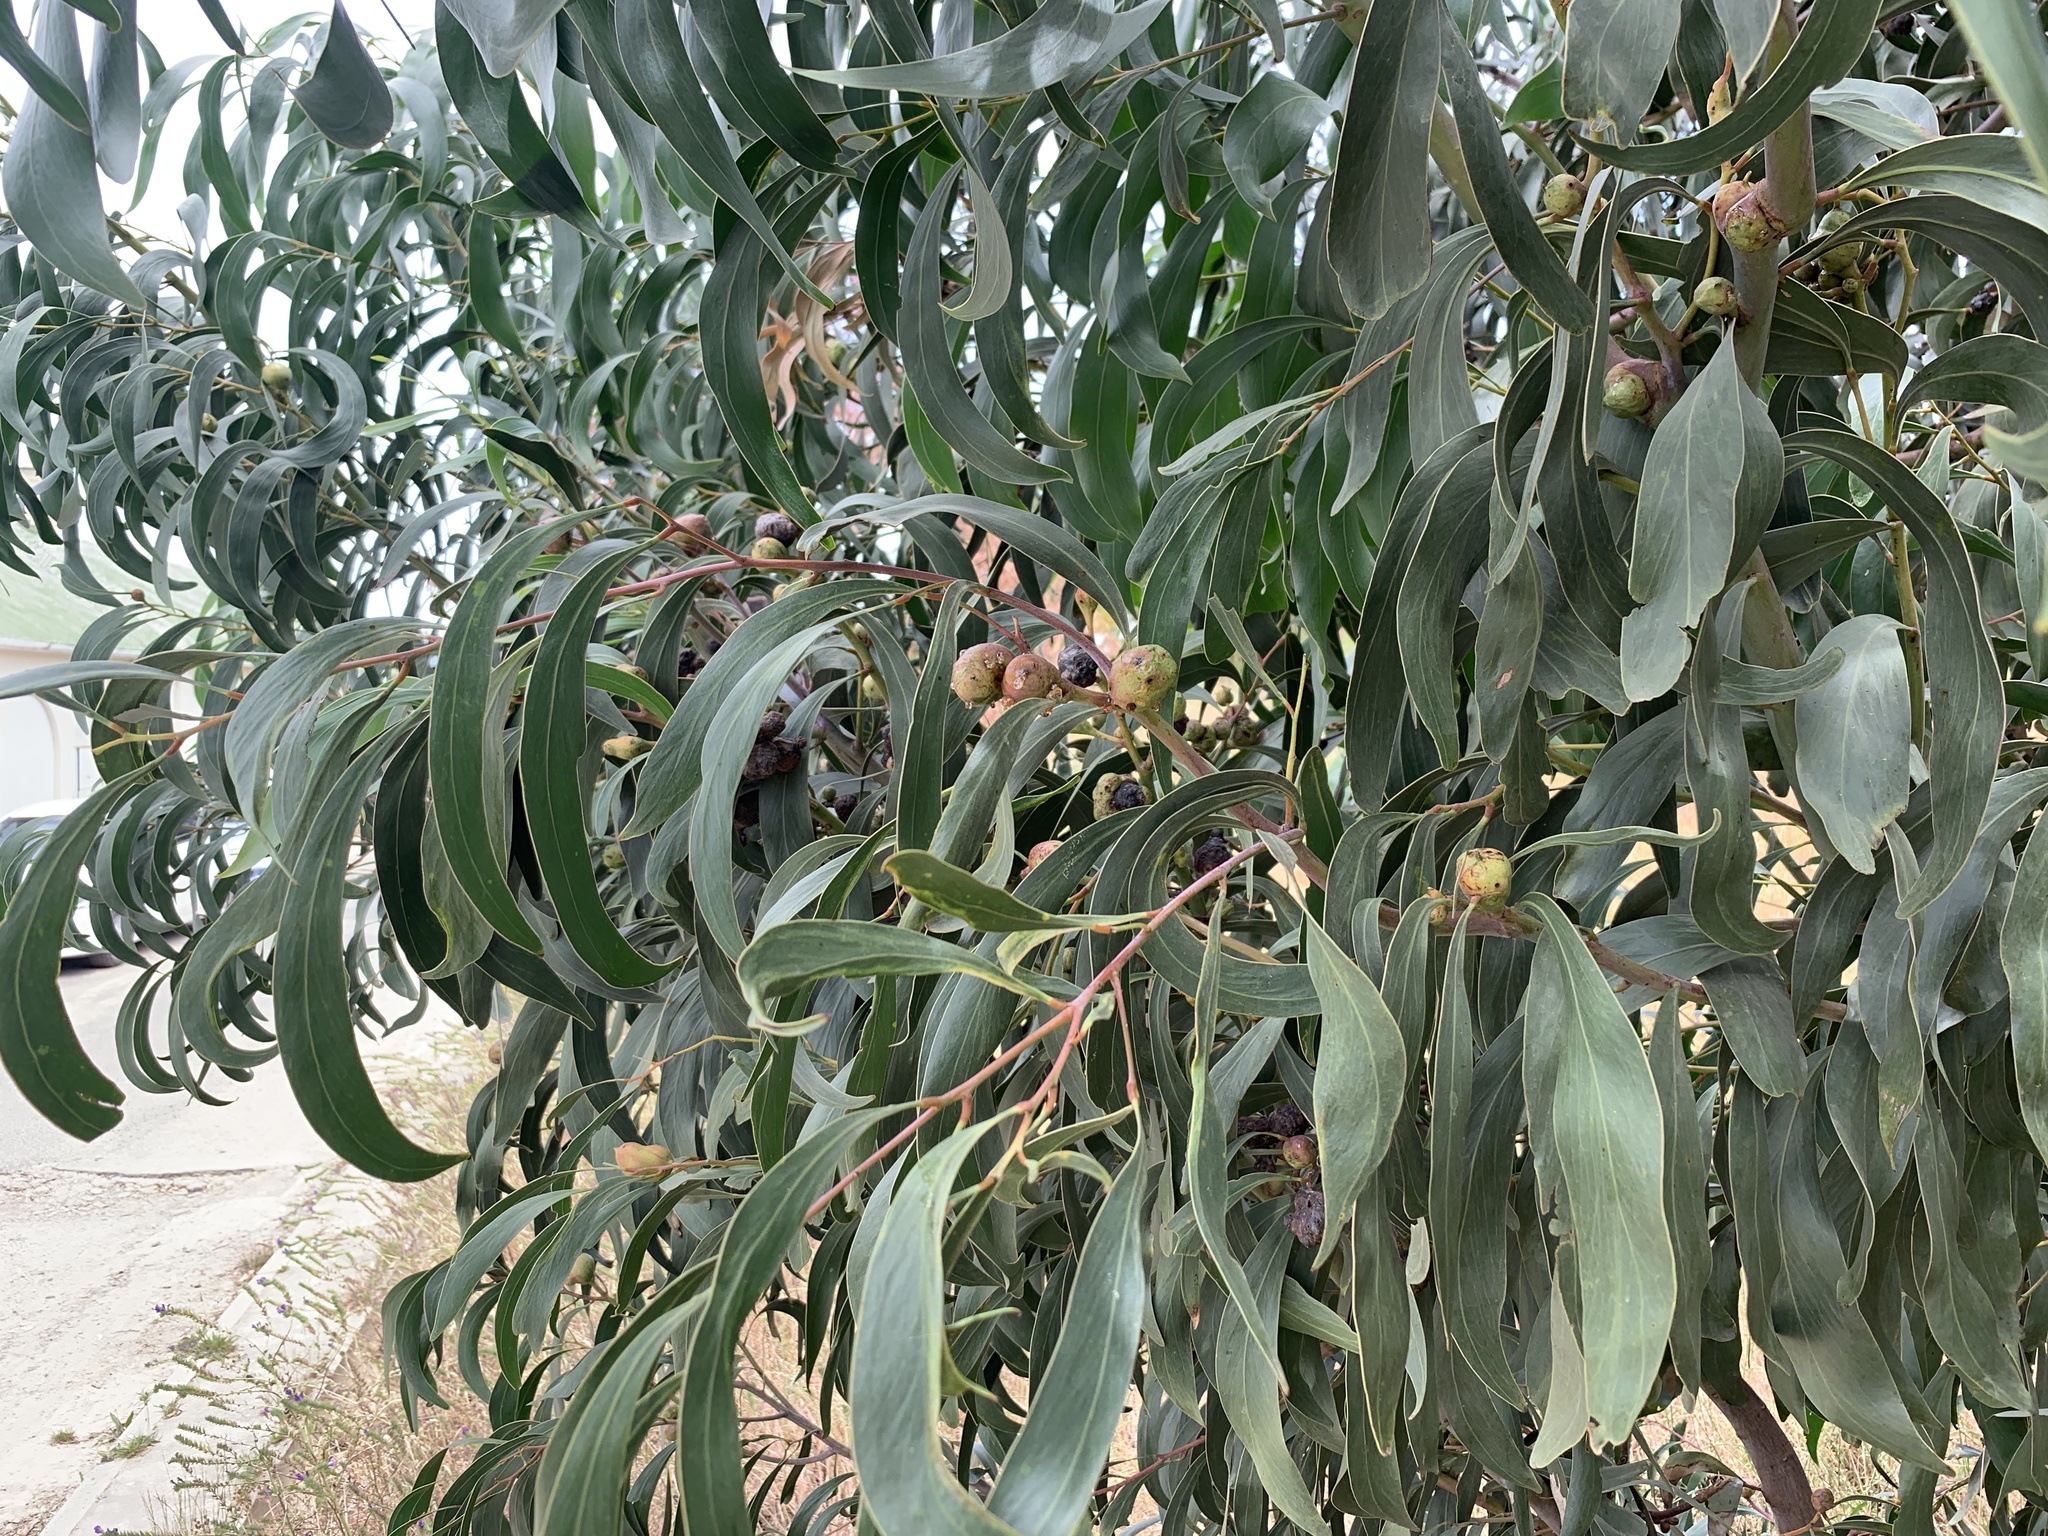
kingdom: Plantae
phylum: Tracheophyta
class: Magnoliopsida
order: Fabales
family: Fabaceae
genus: Acacia
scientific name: Acacia pycnantha
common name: Golden wattle
